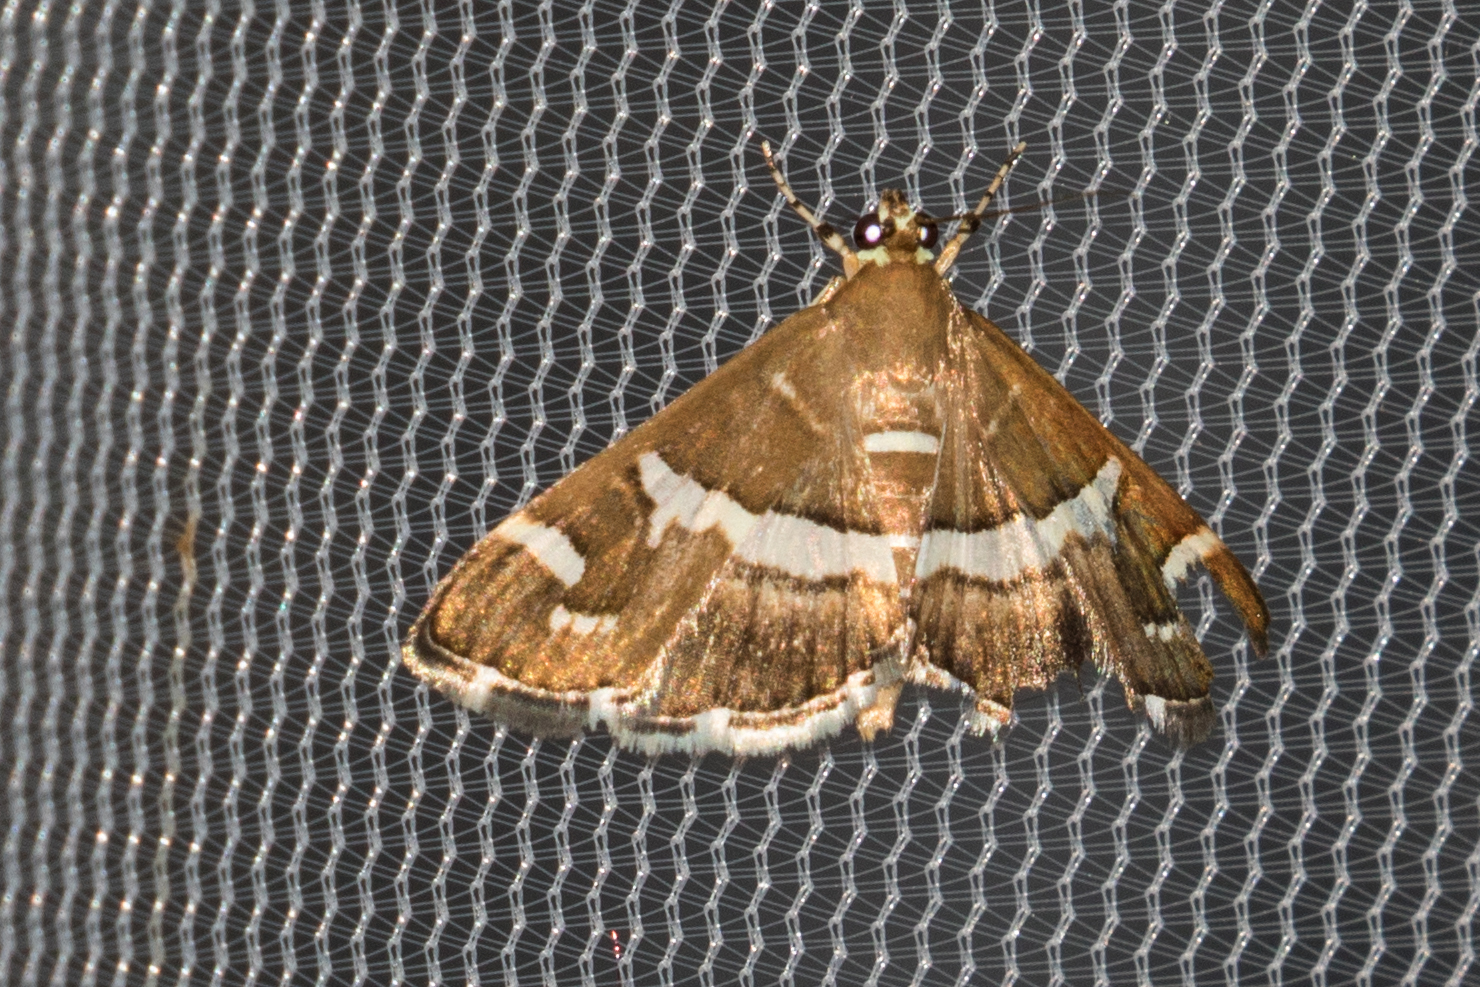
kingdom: Animalia
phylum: Arthropoda
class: Insecta
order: Lepidoptera
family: Crambidae
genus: Spoladea
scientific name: Spoladea recurvalis
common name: Beet webworm moth
